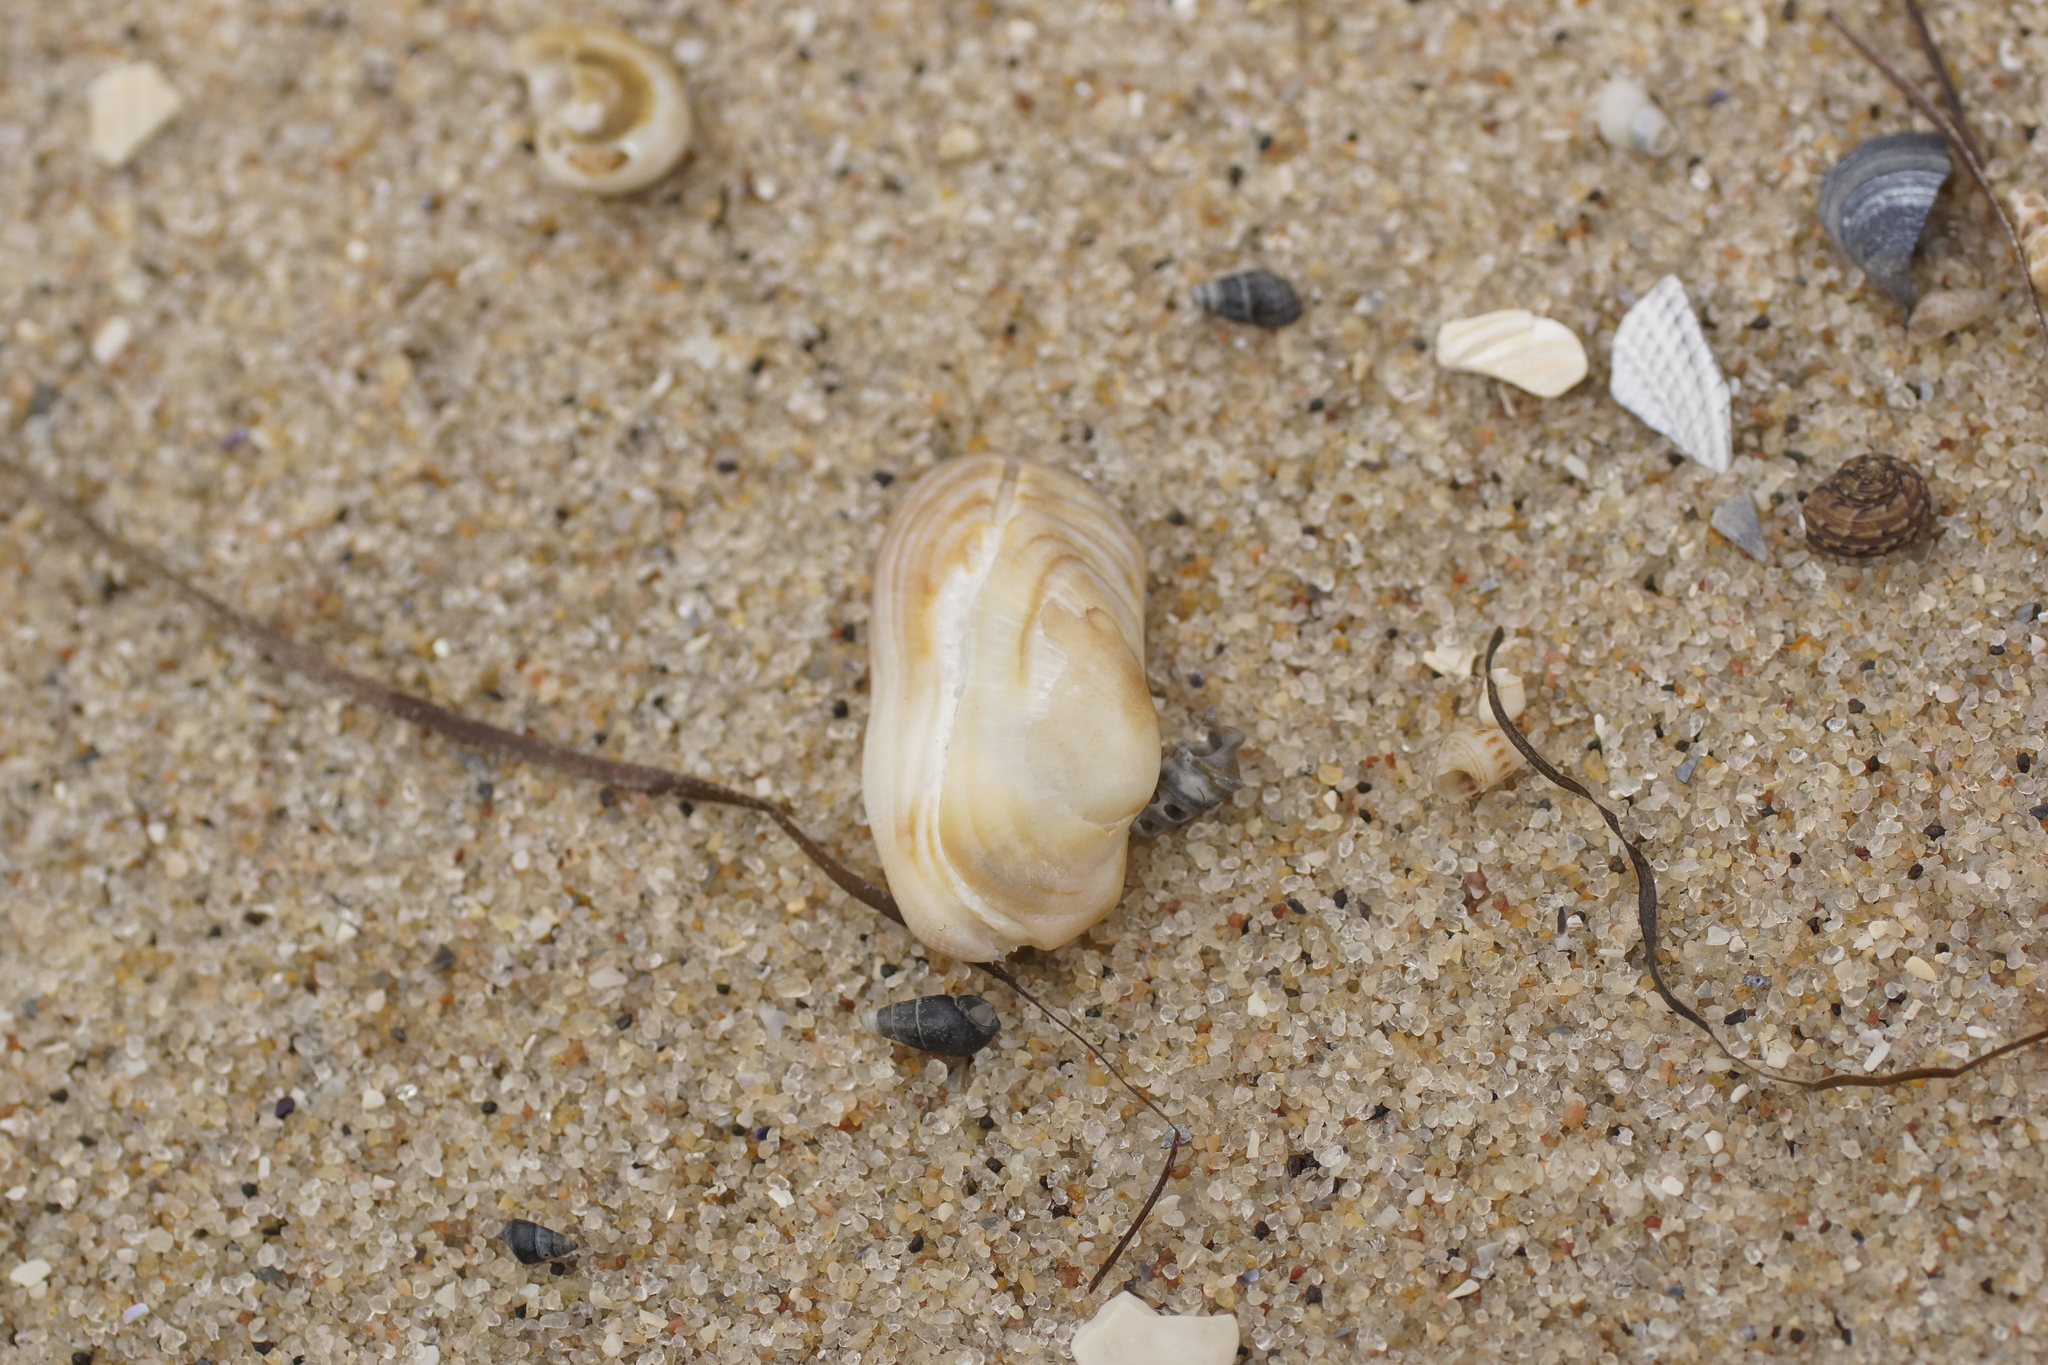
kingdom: Animalia
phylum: Mollusca
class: Bivalvia
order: Arcida
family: Arcidae
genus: Barbatia
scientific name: Barbatia pistachia
